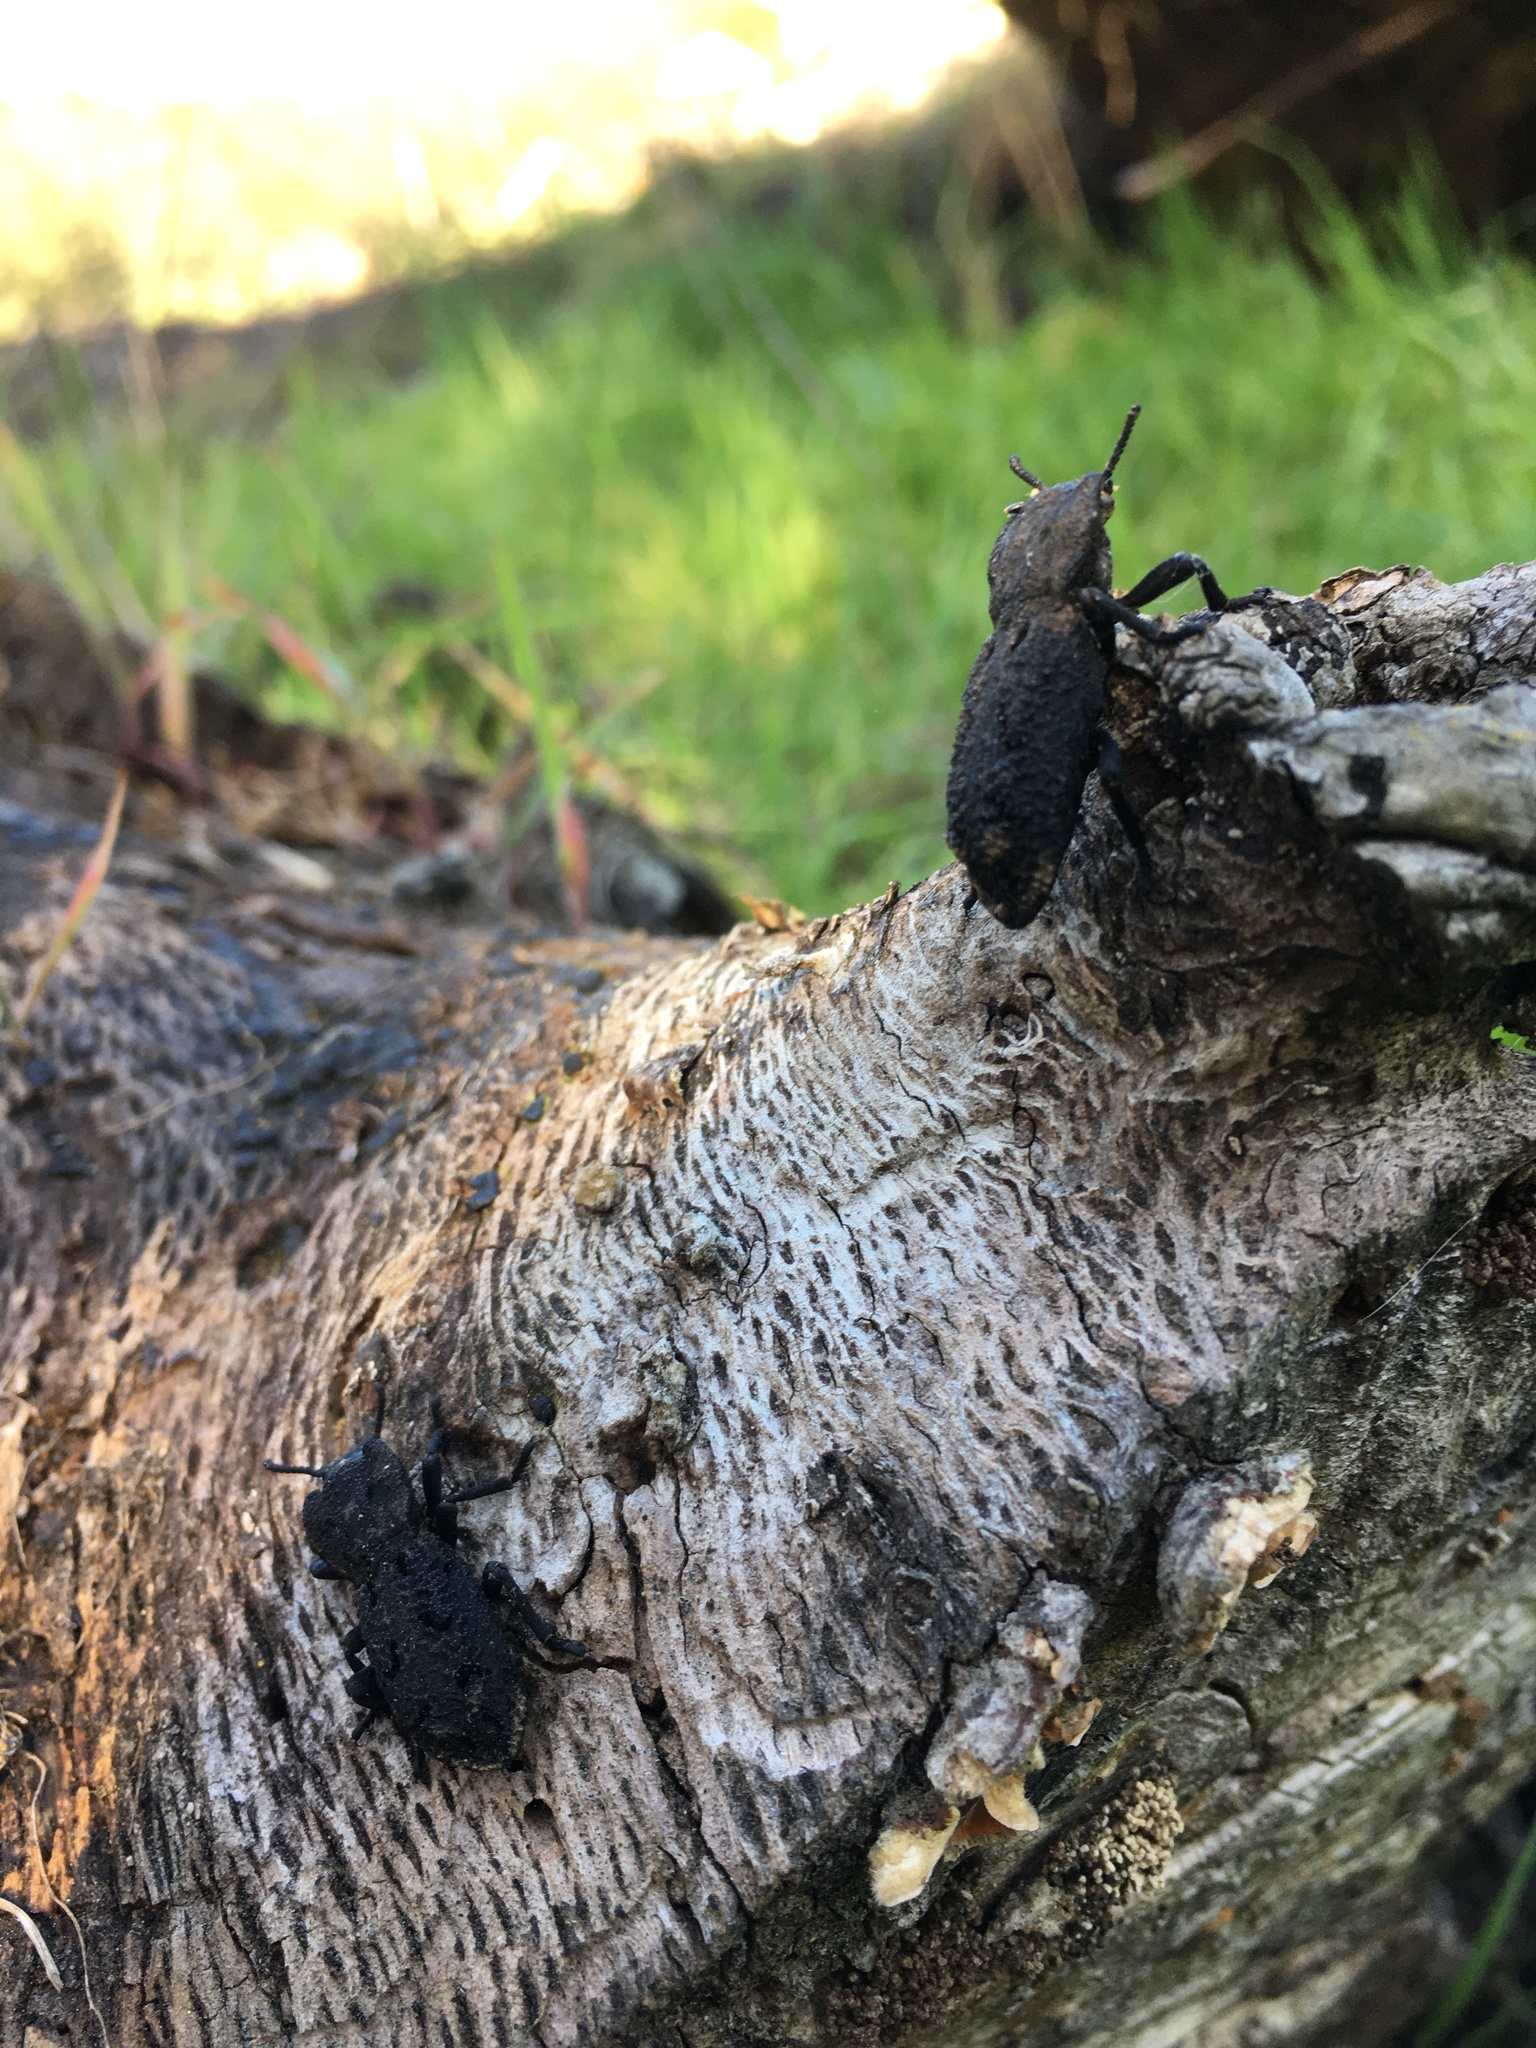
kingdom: Animalia
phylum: Arthropoda
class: Insecta
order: Coleoptera
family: Zopheridae
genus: Phloeodes
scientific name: Phloeodes diabolicus
